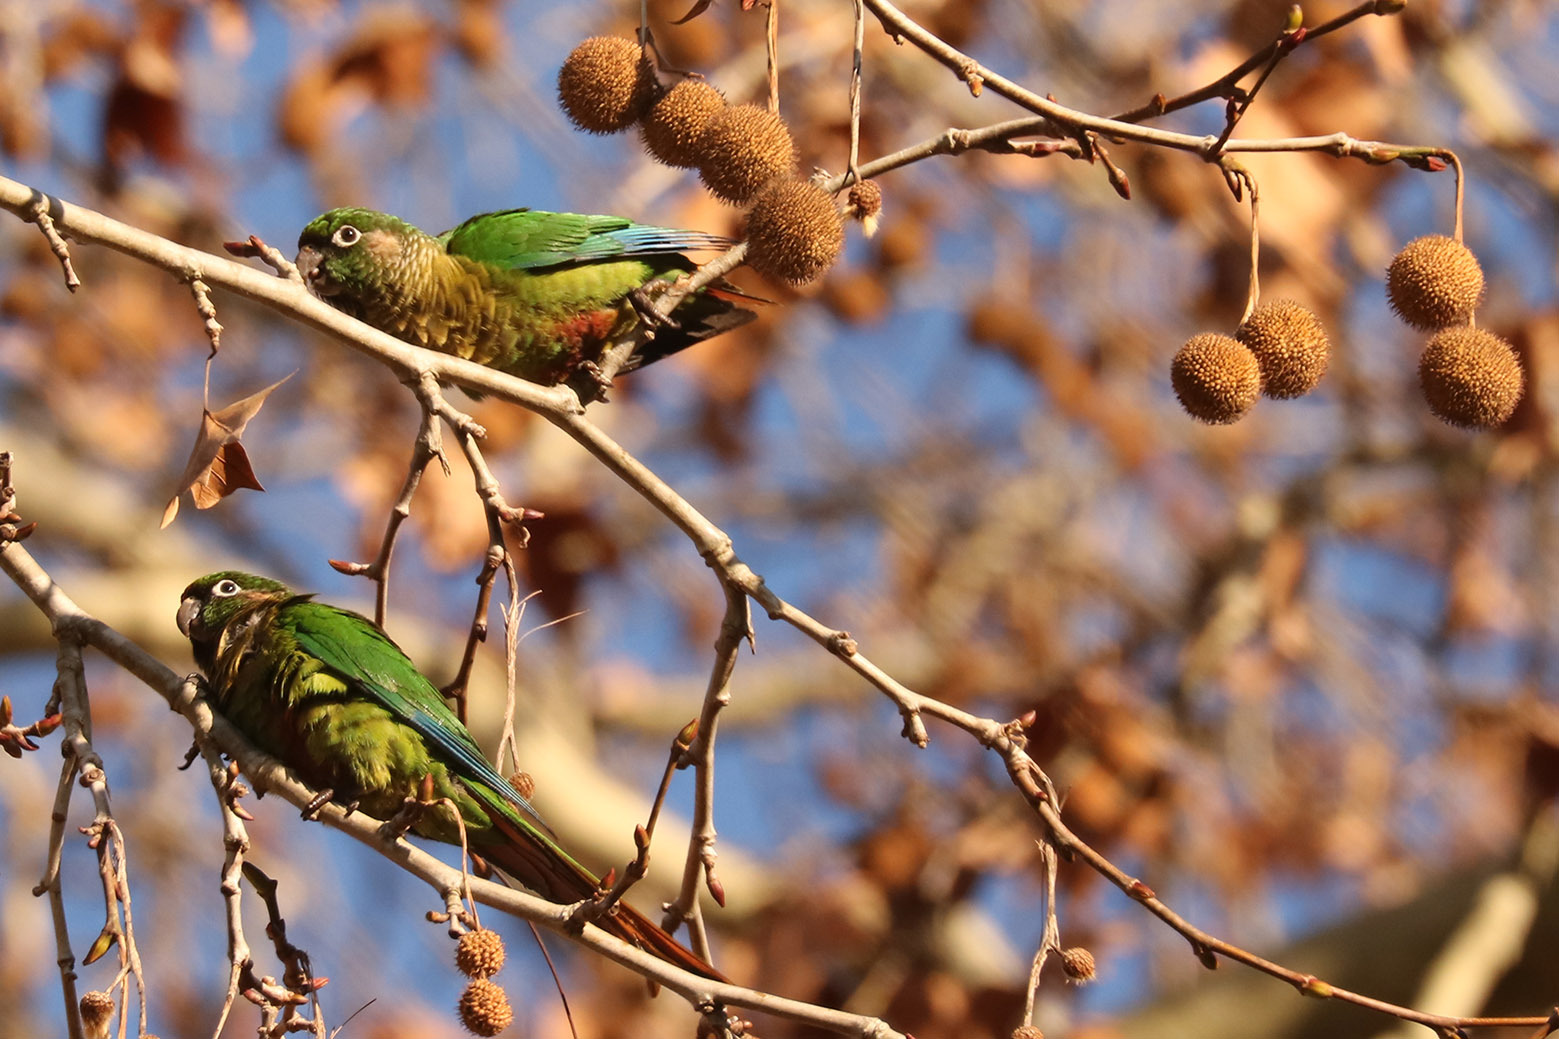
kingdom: Animalia
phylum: Chordata
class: Aves
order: Psittaciformes
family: Psittacidae
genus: Pyrrhura
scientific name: Pyrrhura frontalis
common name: Maroon-bellied parakeet
